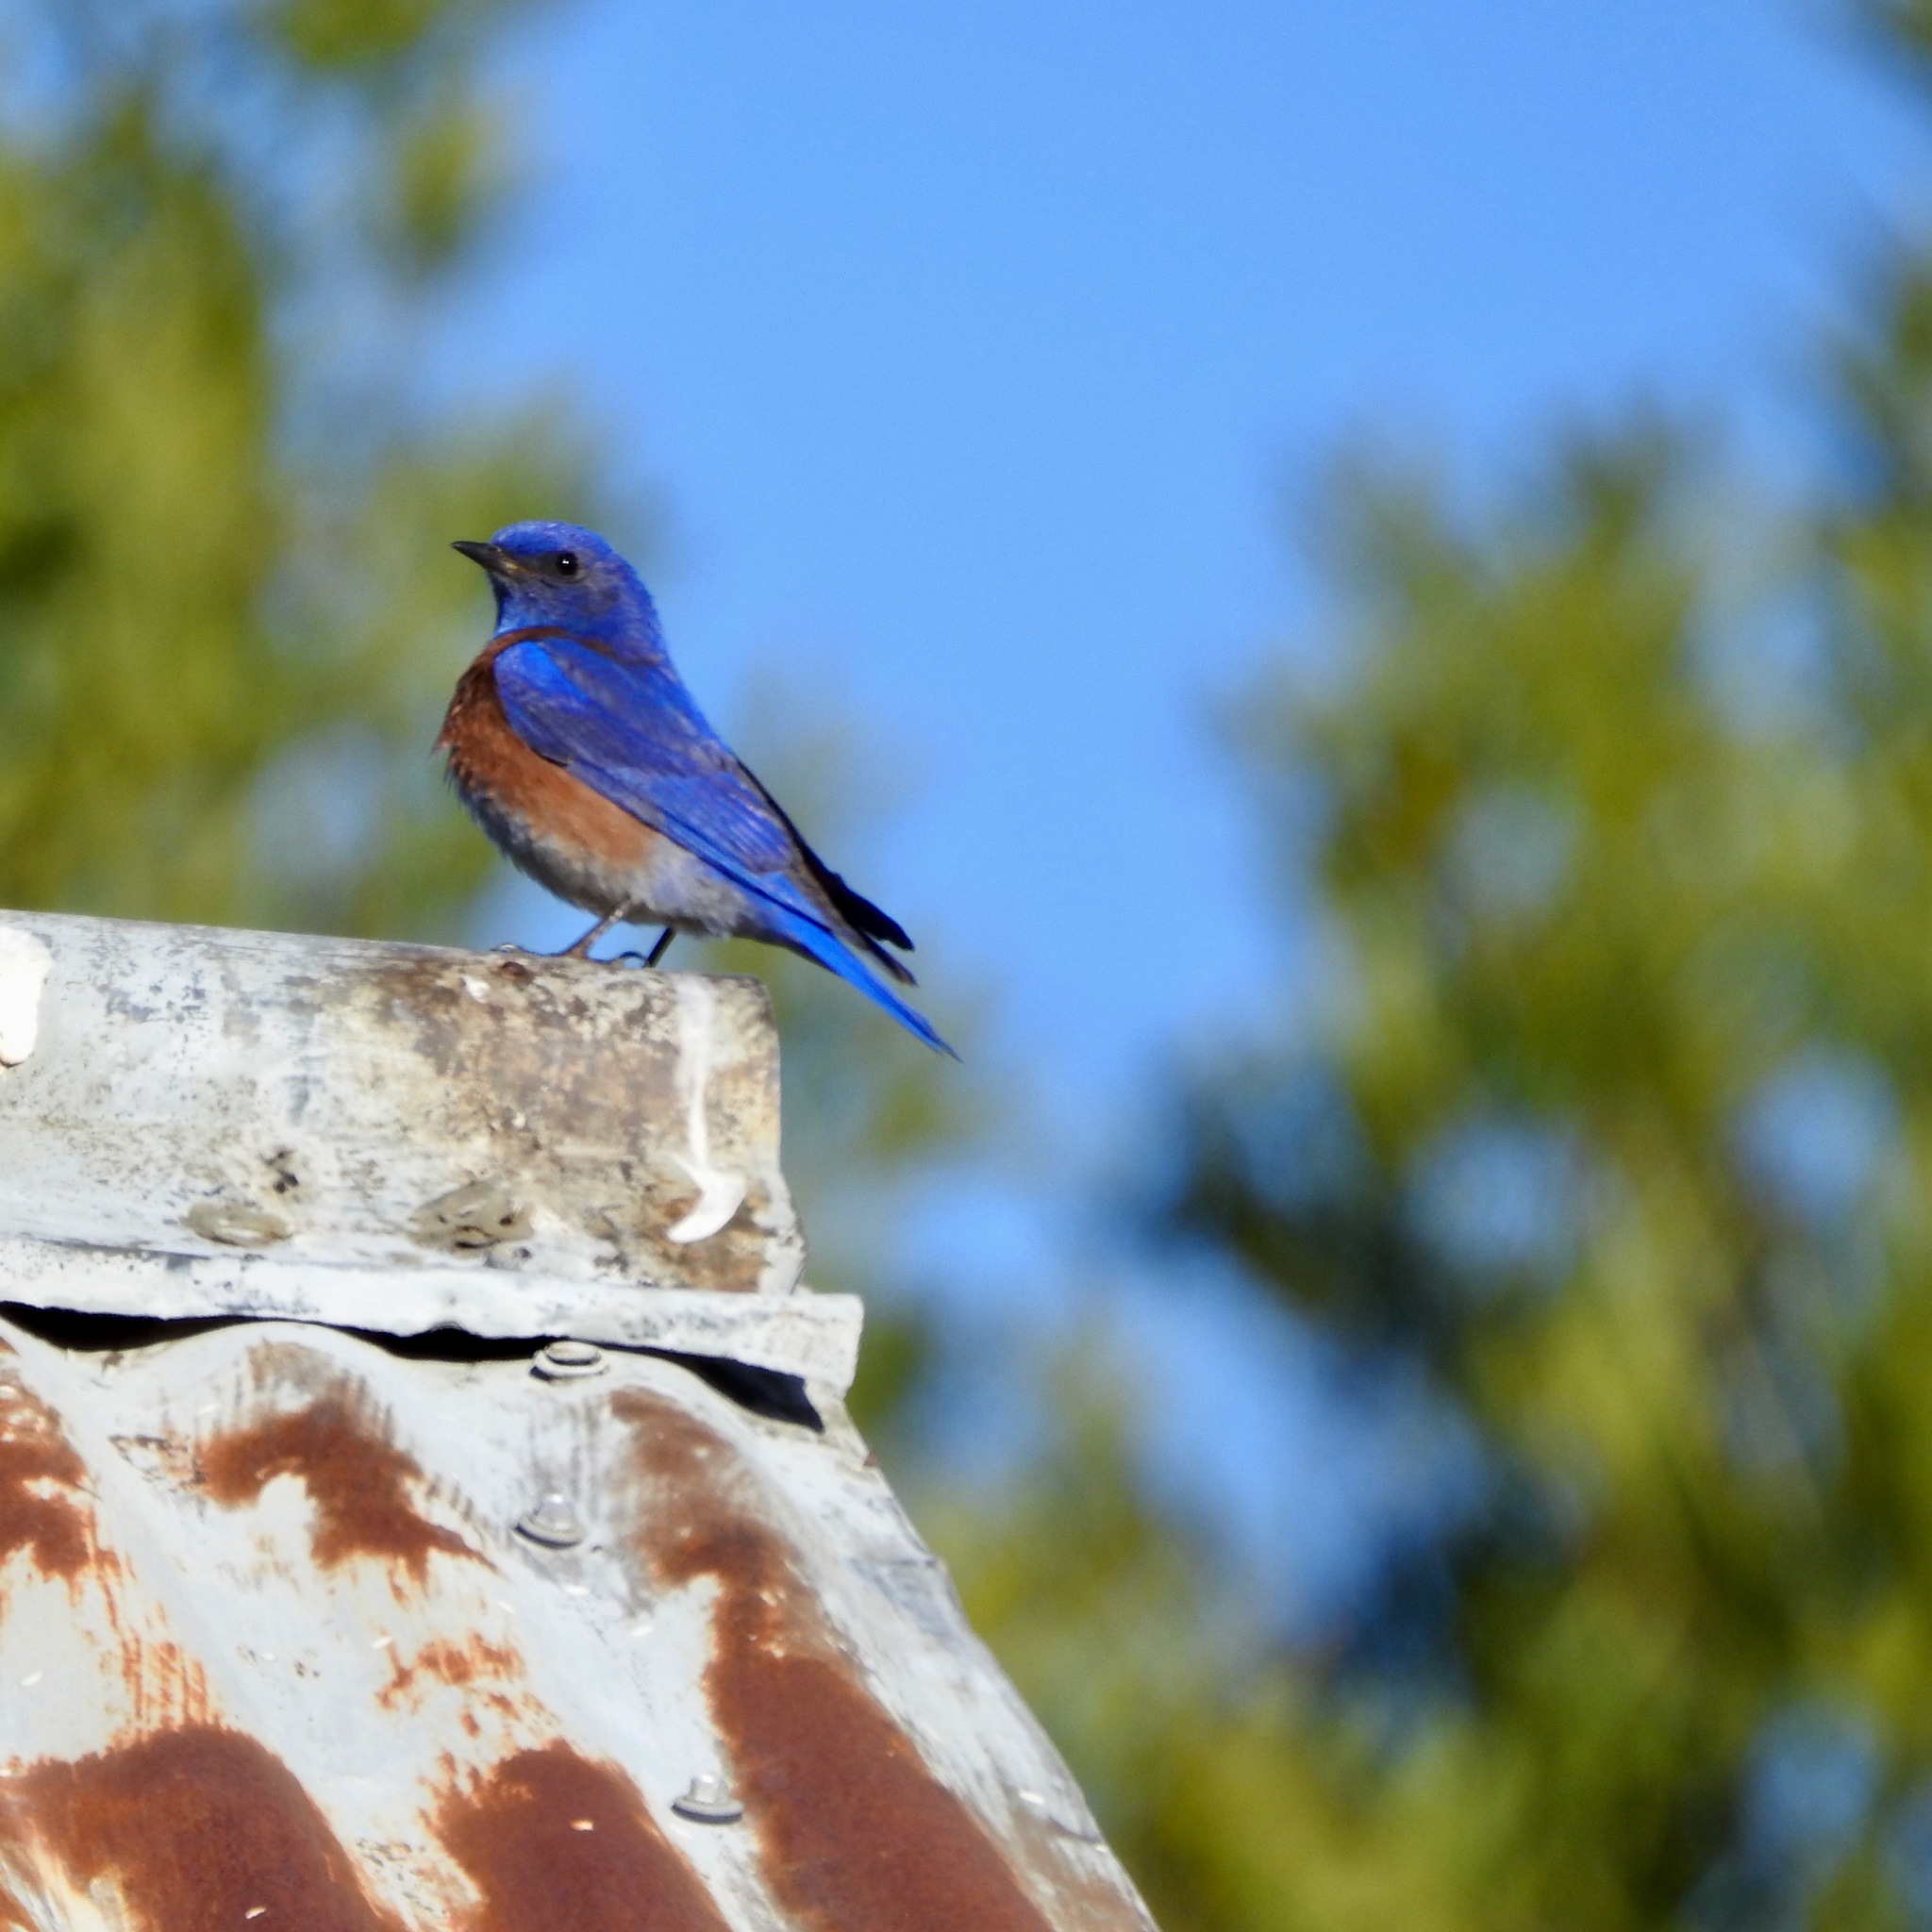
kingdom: Animalia
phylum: Chordata
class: Aves
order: Passeriformes
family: Turdidae
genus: Sialia
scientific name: Sialia mexicana
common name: Western bluebird
